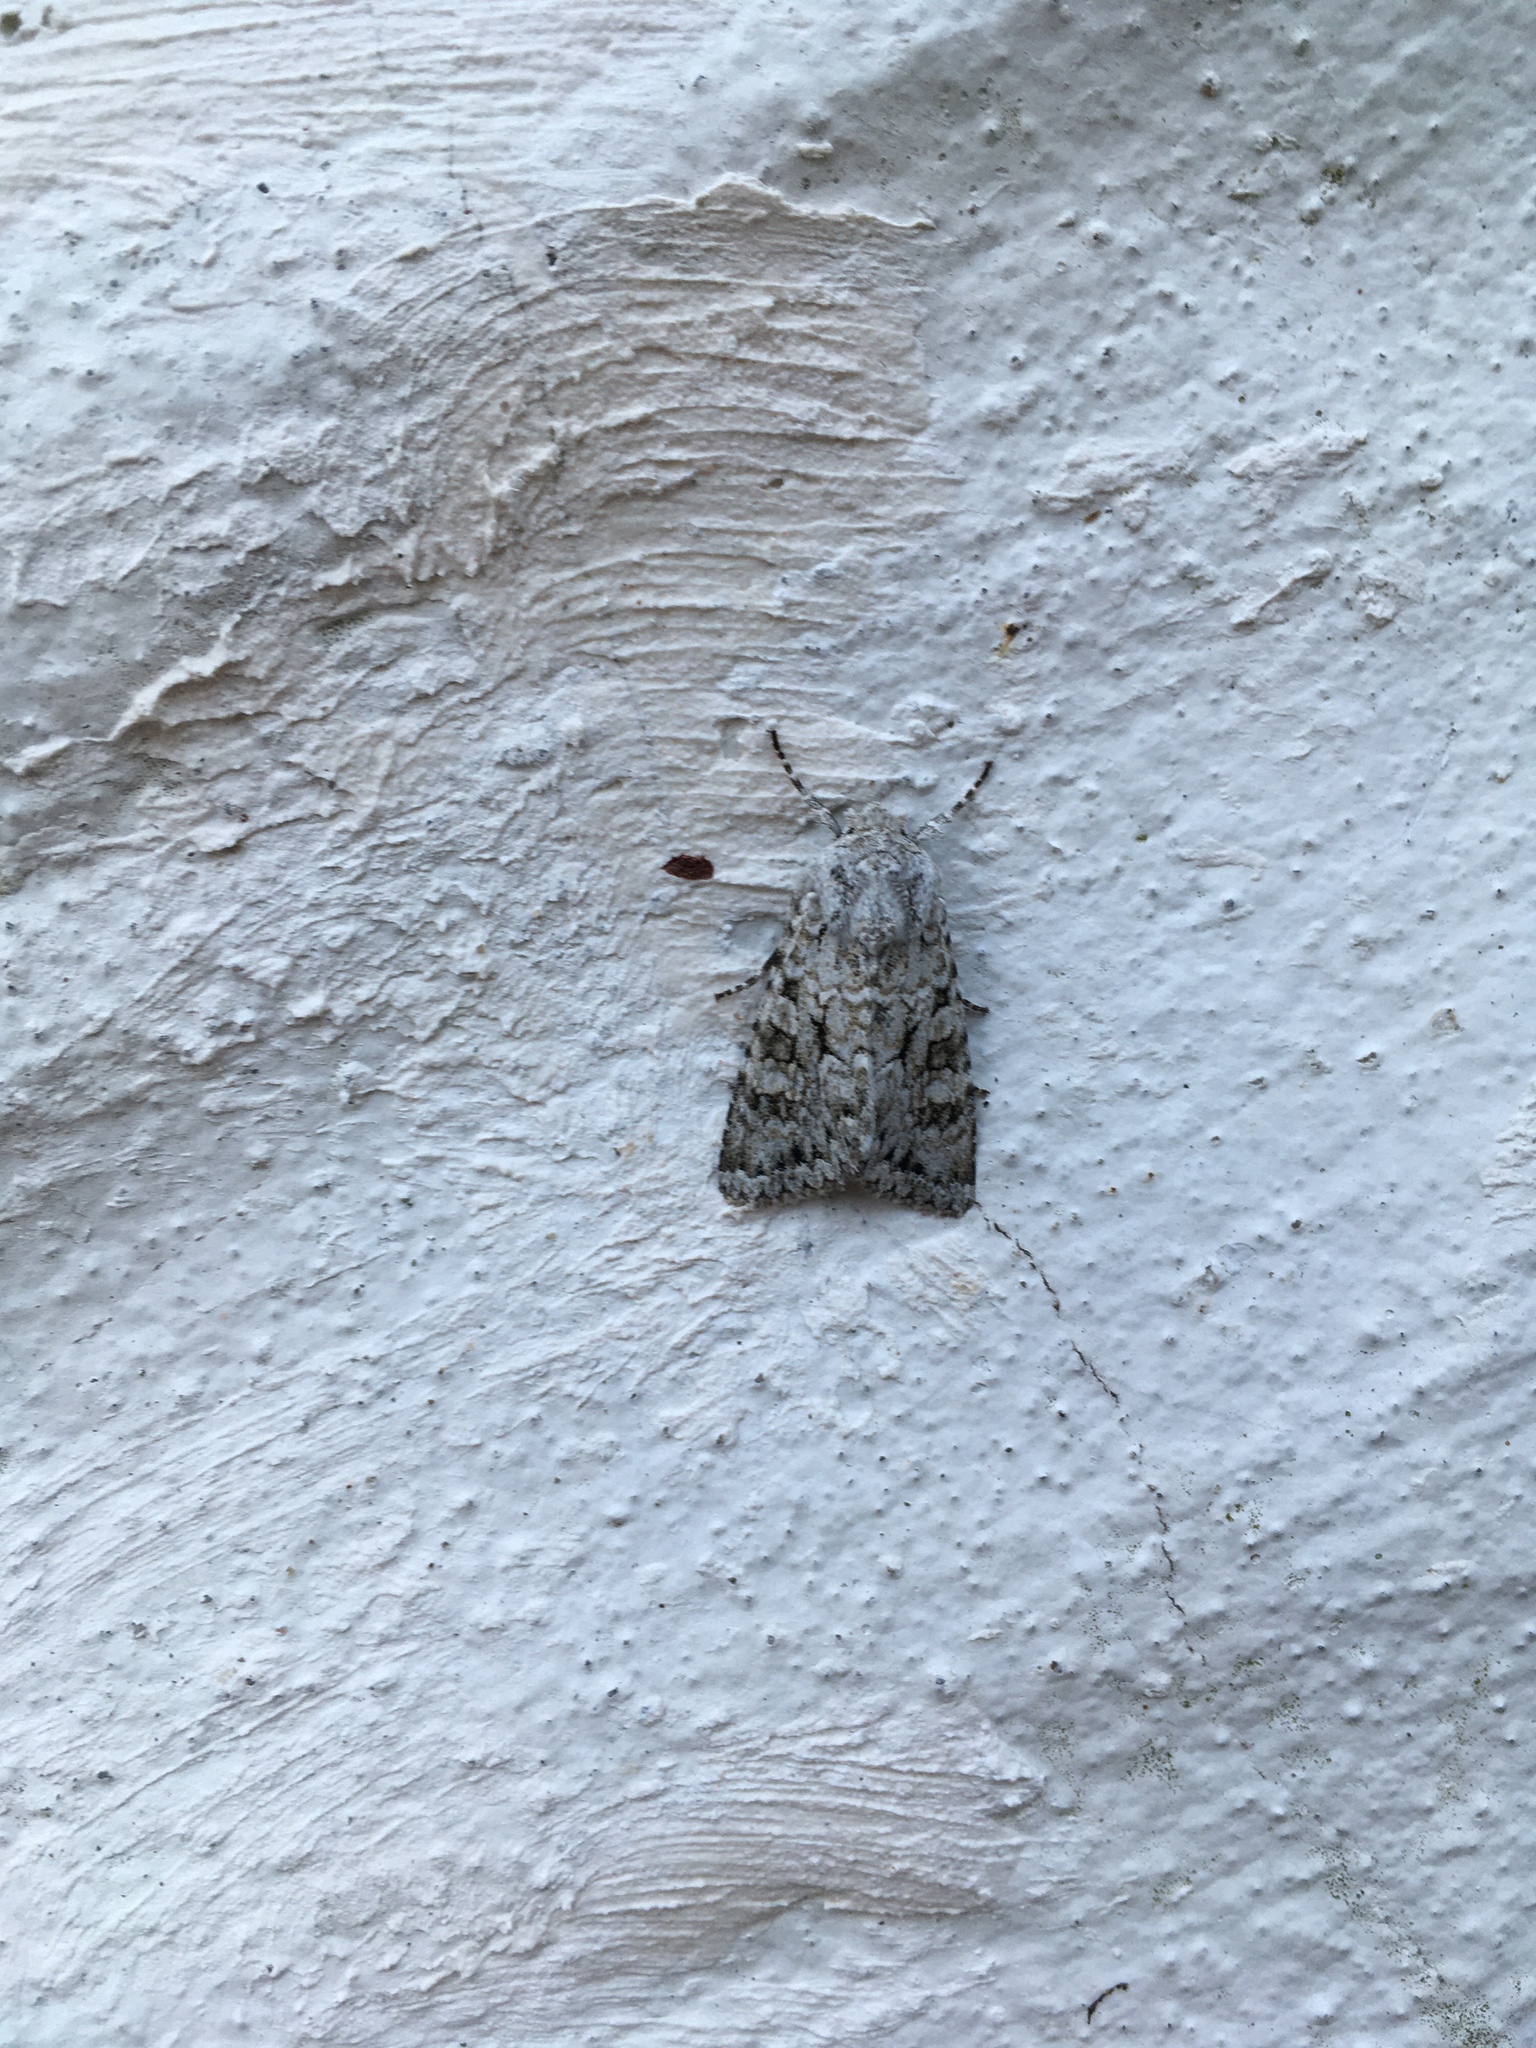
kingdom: Animalia
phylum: Arthropoda
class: Insecta
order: Lepidoptera
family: Noctuidae
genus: Antitype
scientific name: Antitype chi
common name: Grey chi
